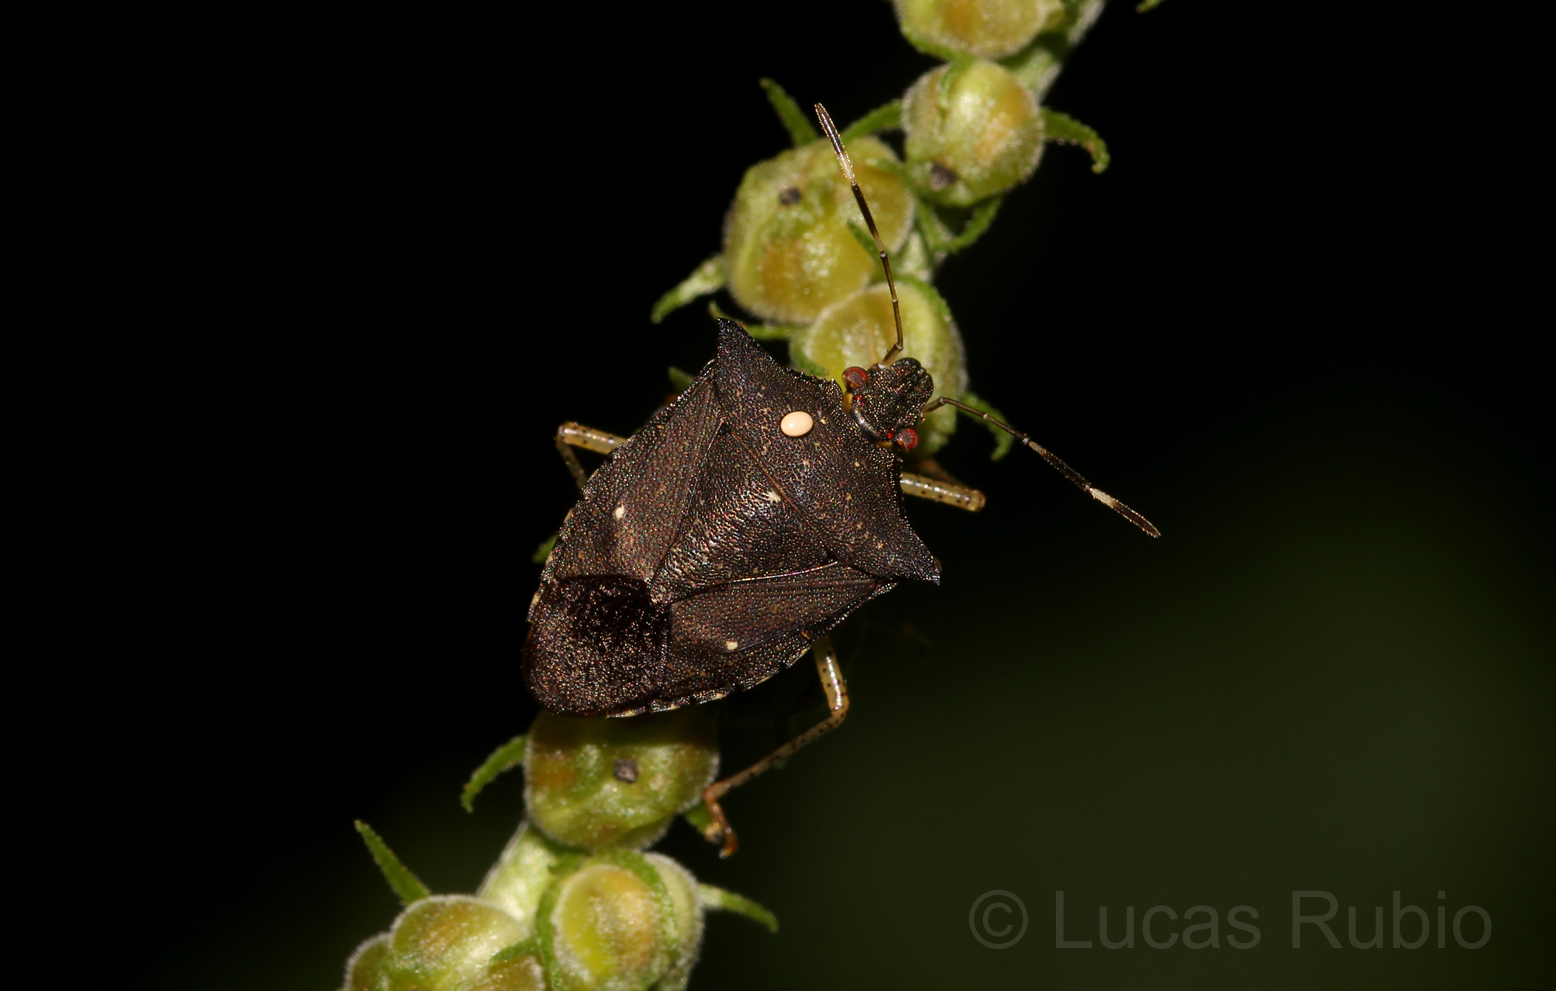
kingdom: Animalia
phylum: Arthropoda
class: Insecta
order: Hemiptera
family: Pentatomidae
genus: Mitripus
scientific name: Mitripus acutus
